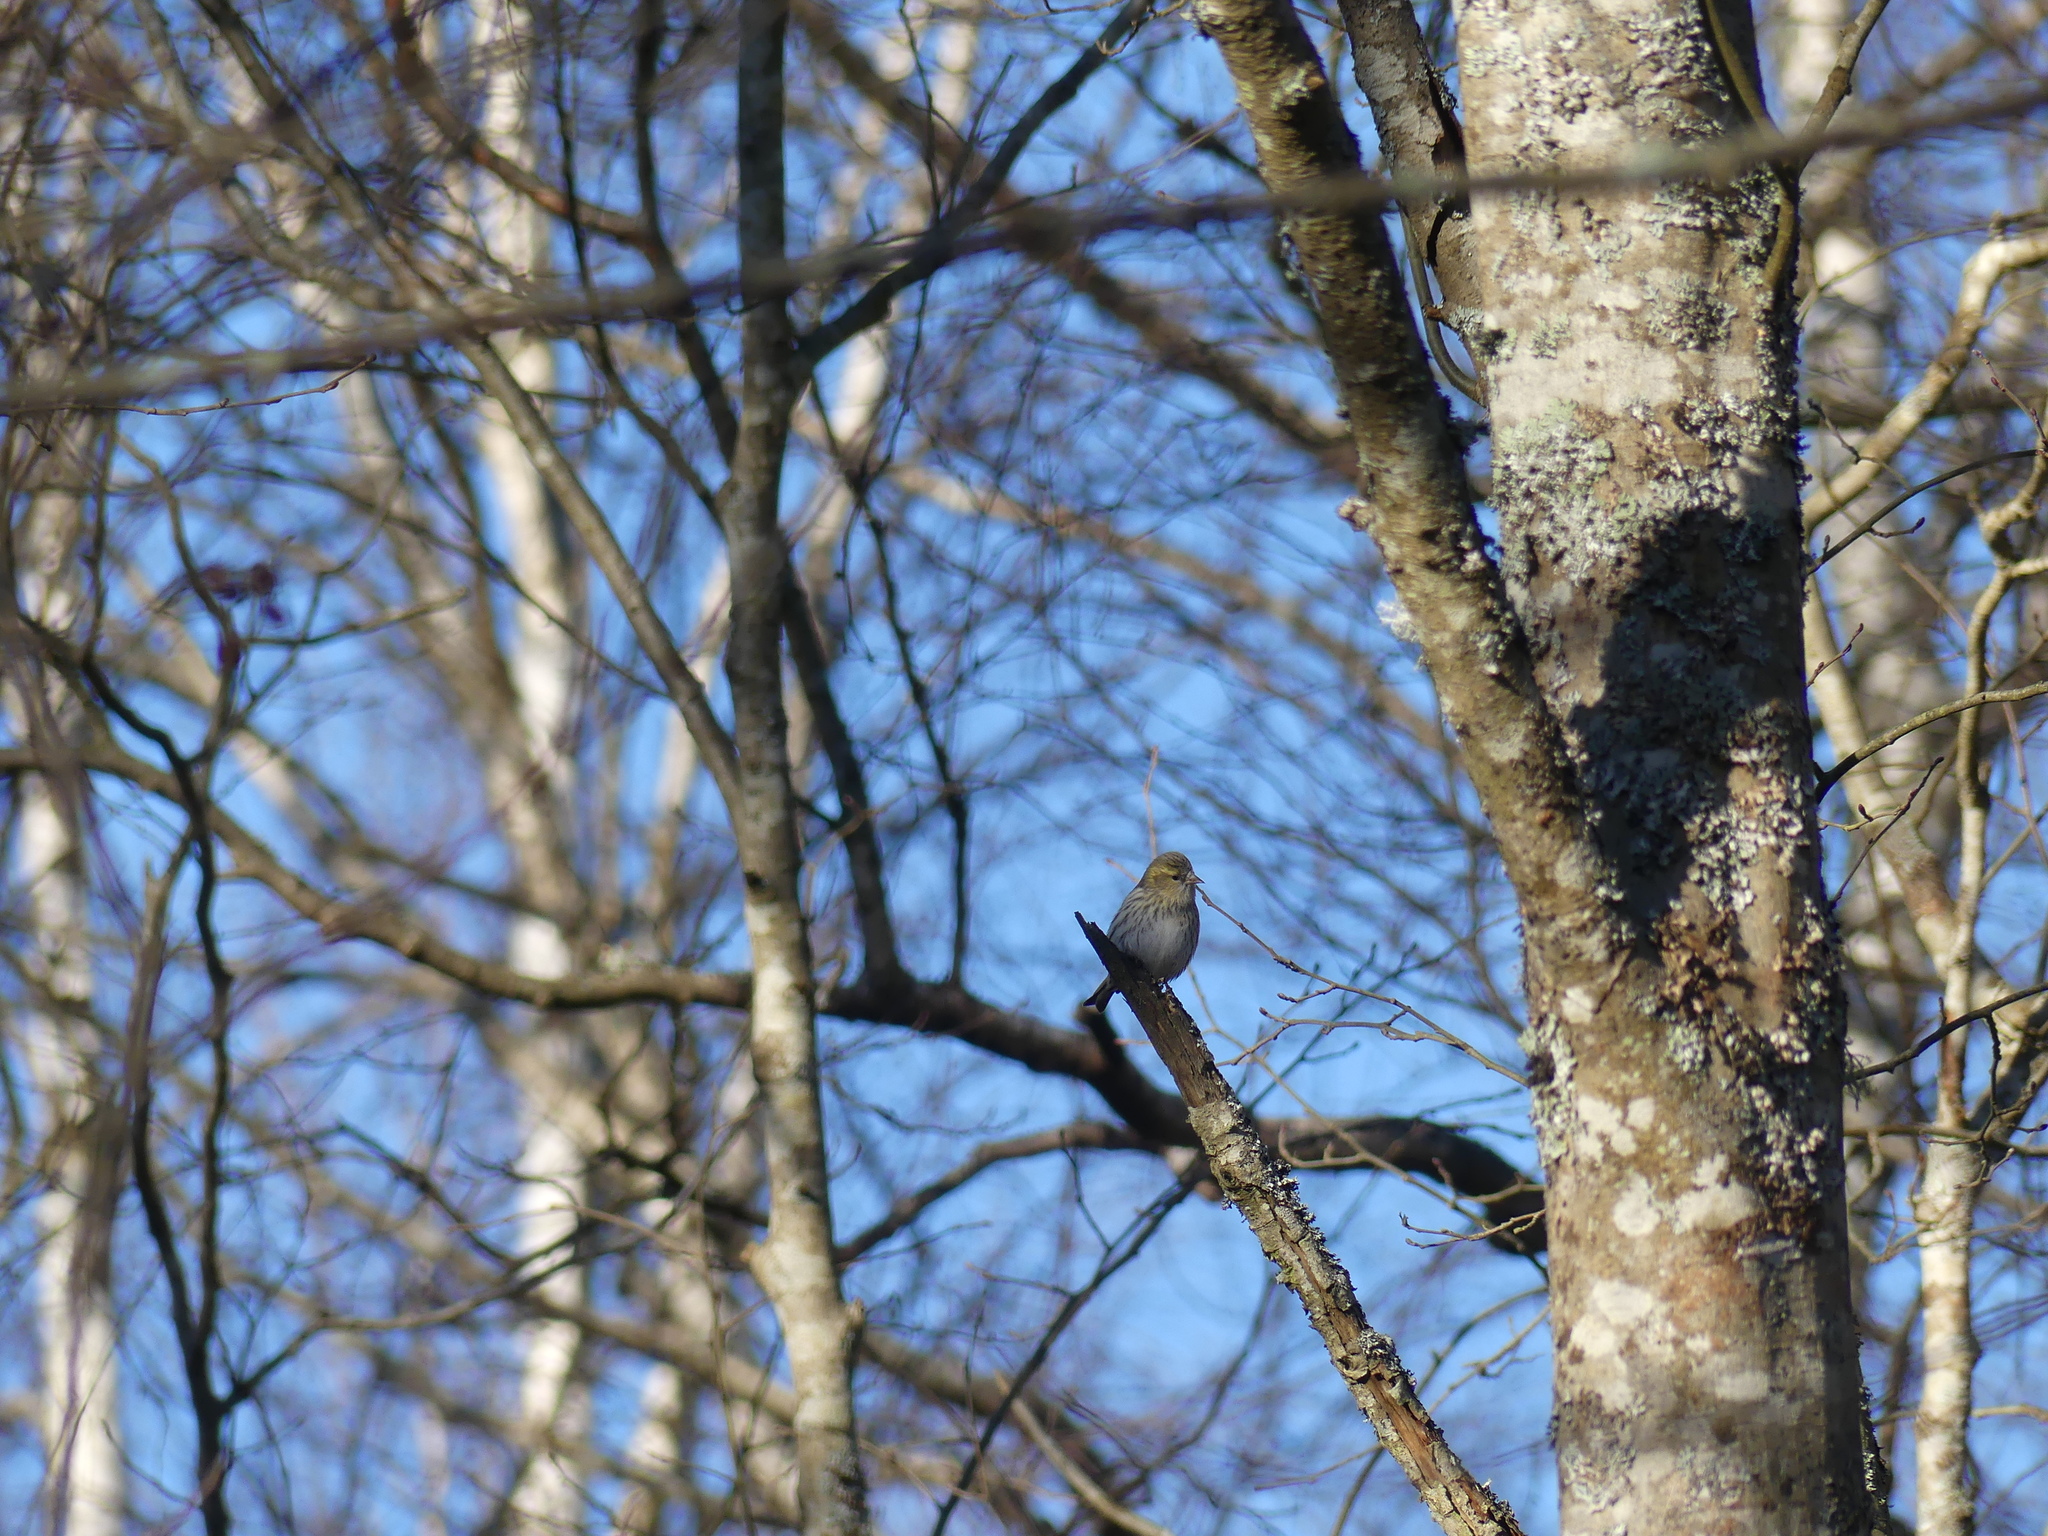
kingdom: Animalia
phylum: Chordata
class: Aves
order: Passeriformes
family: Fringillidae
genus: Spinus
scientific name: Spinus spinus
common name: Eurasian siskin
